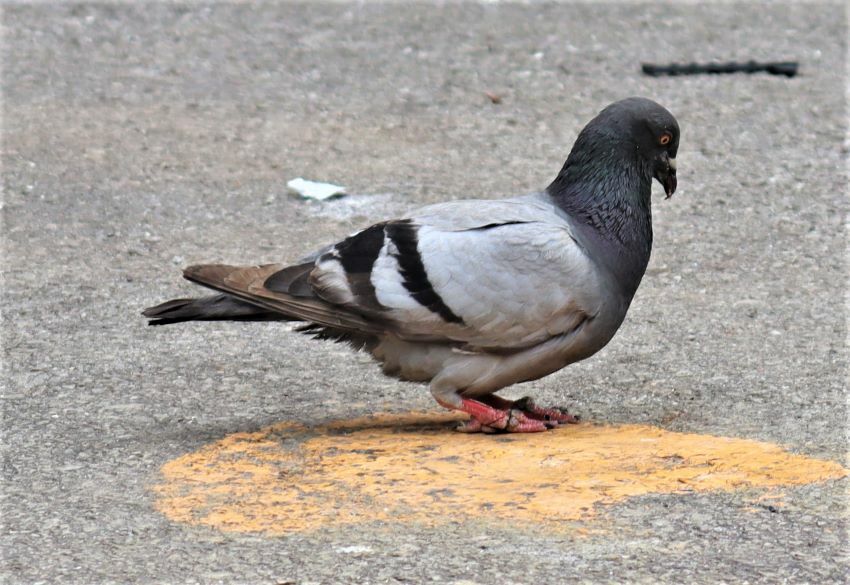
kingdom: Animalia
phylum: Chordata
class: Aves
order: Columbiformes
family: Columbidae
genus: Columba
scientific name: Columba livia
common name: Rock pigeon
